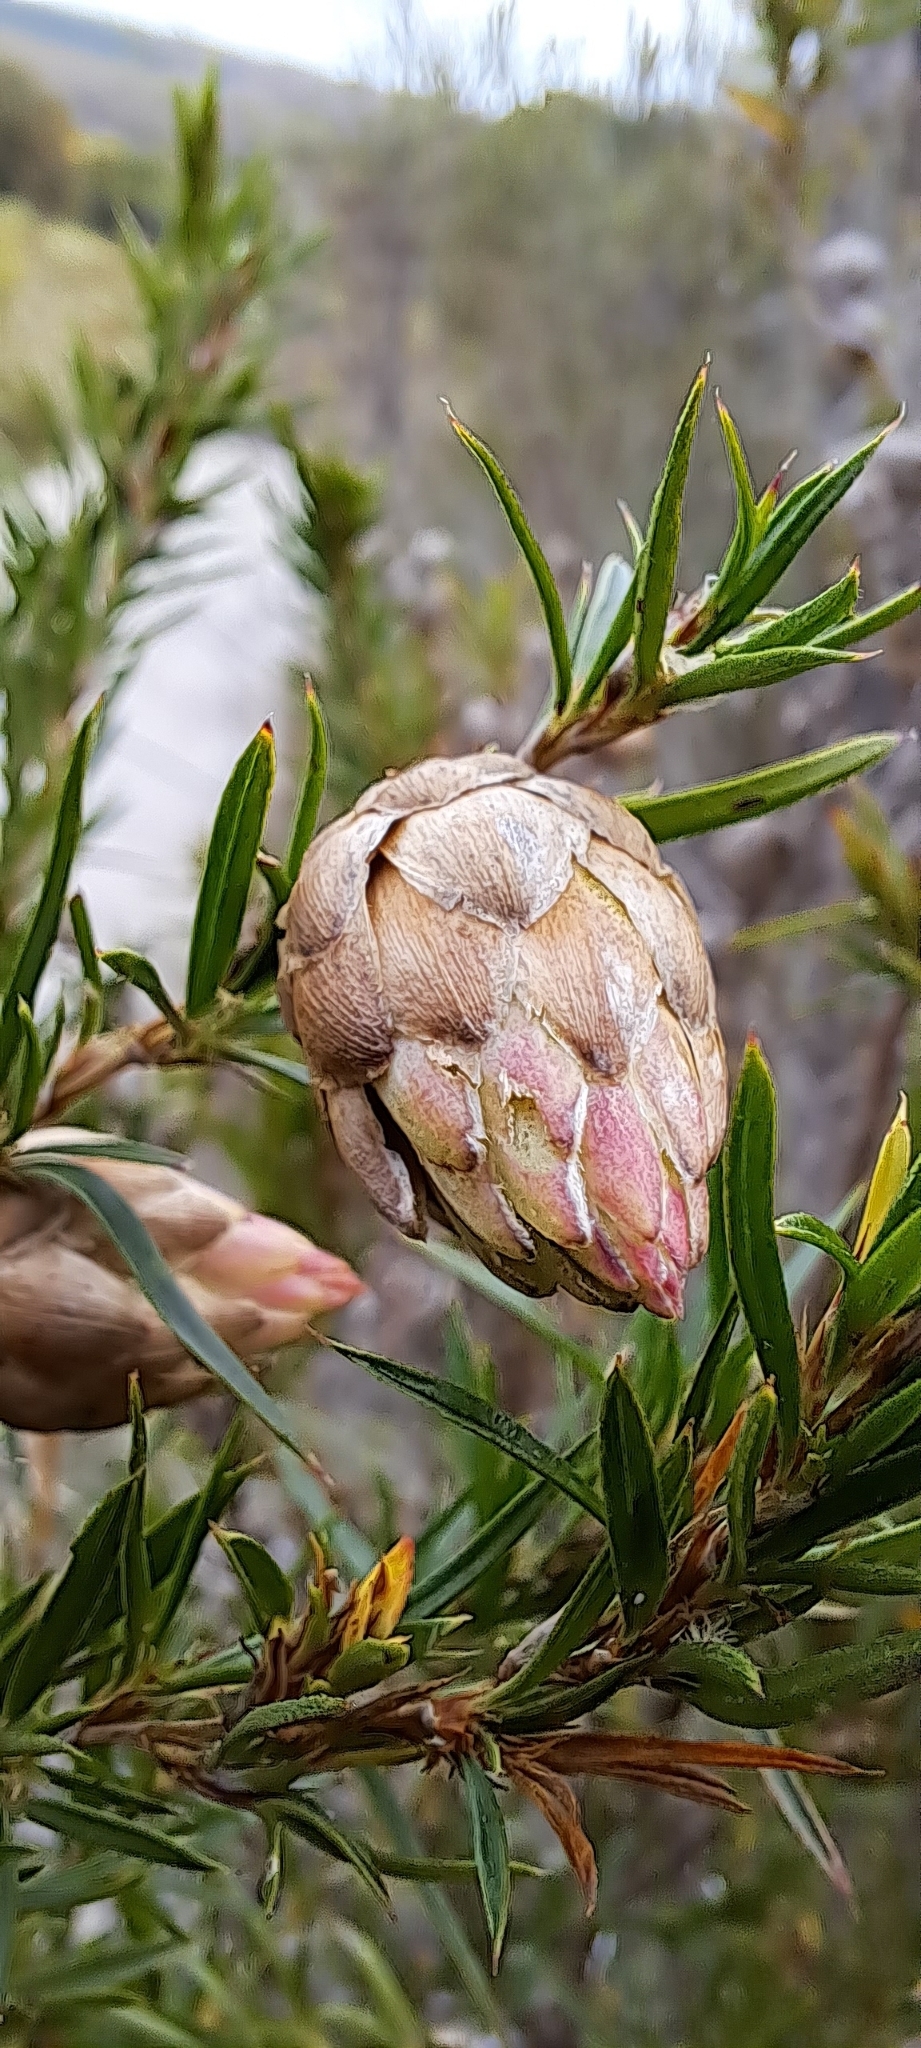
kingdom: Plantae
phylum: Tracheophyta
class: Magnoliopsida
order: Rosales
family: Rosaceae
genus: Cliffortia
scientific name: Cliffortia strobilifera
